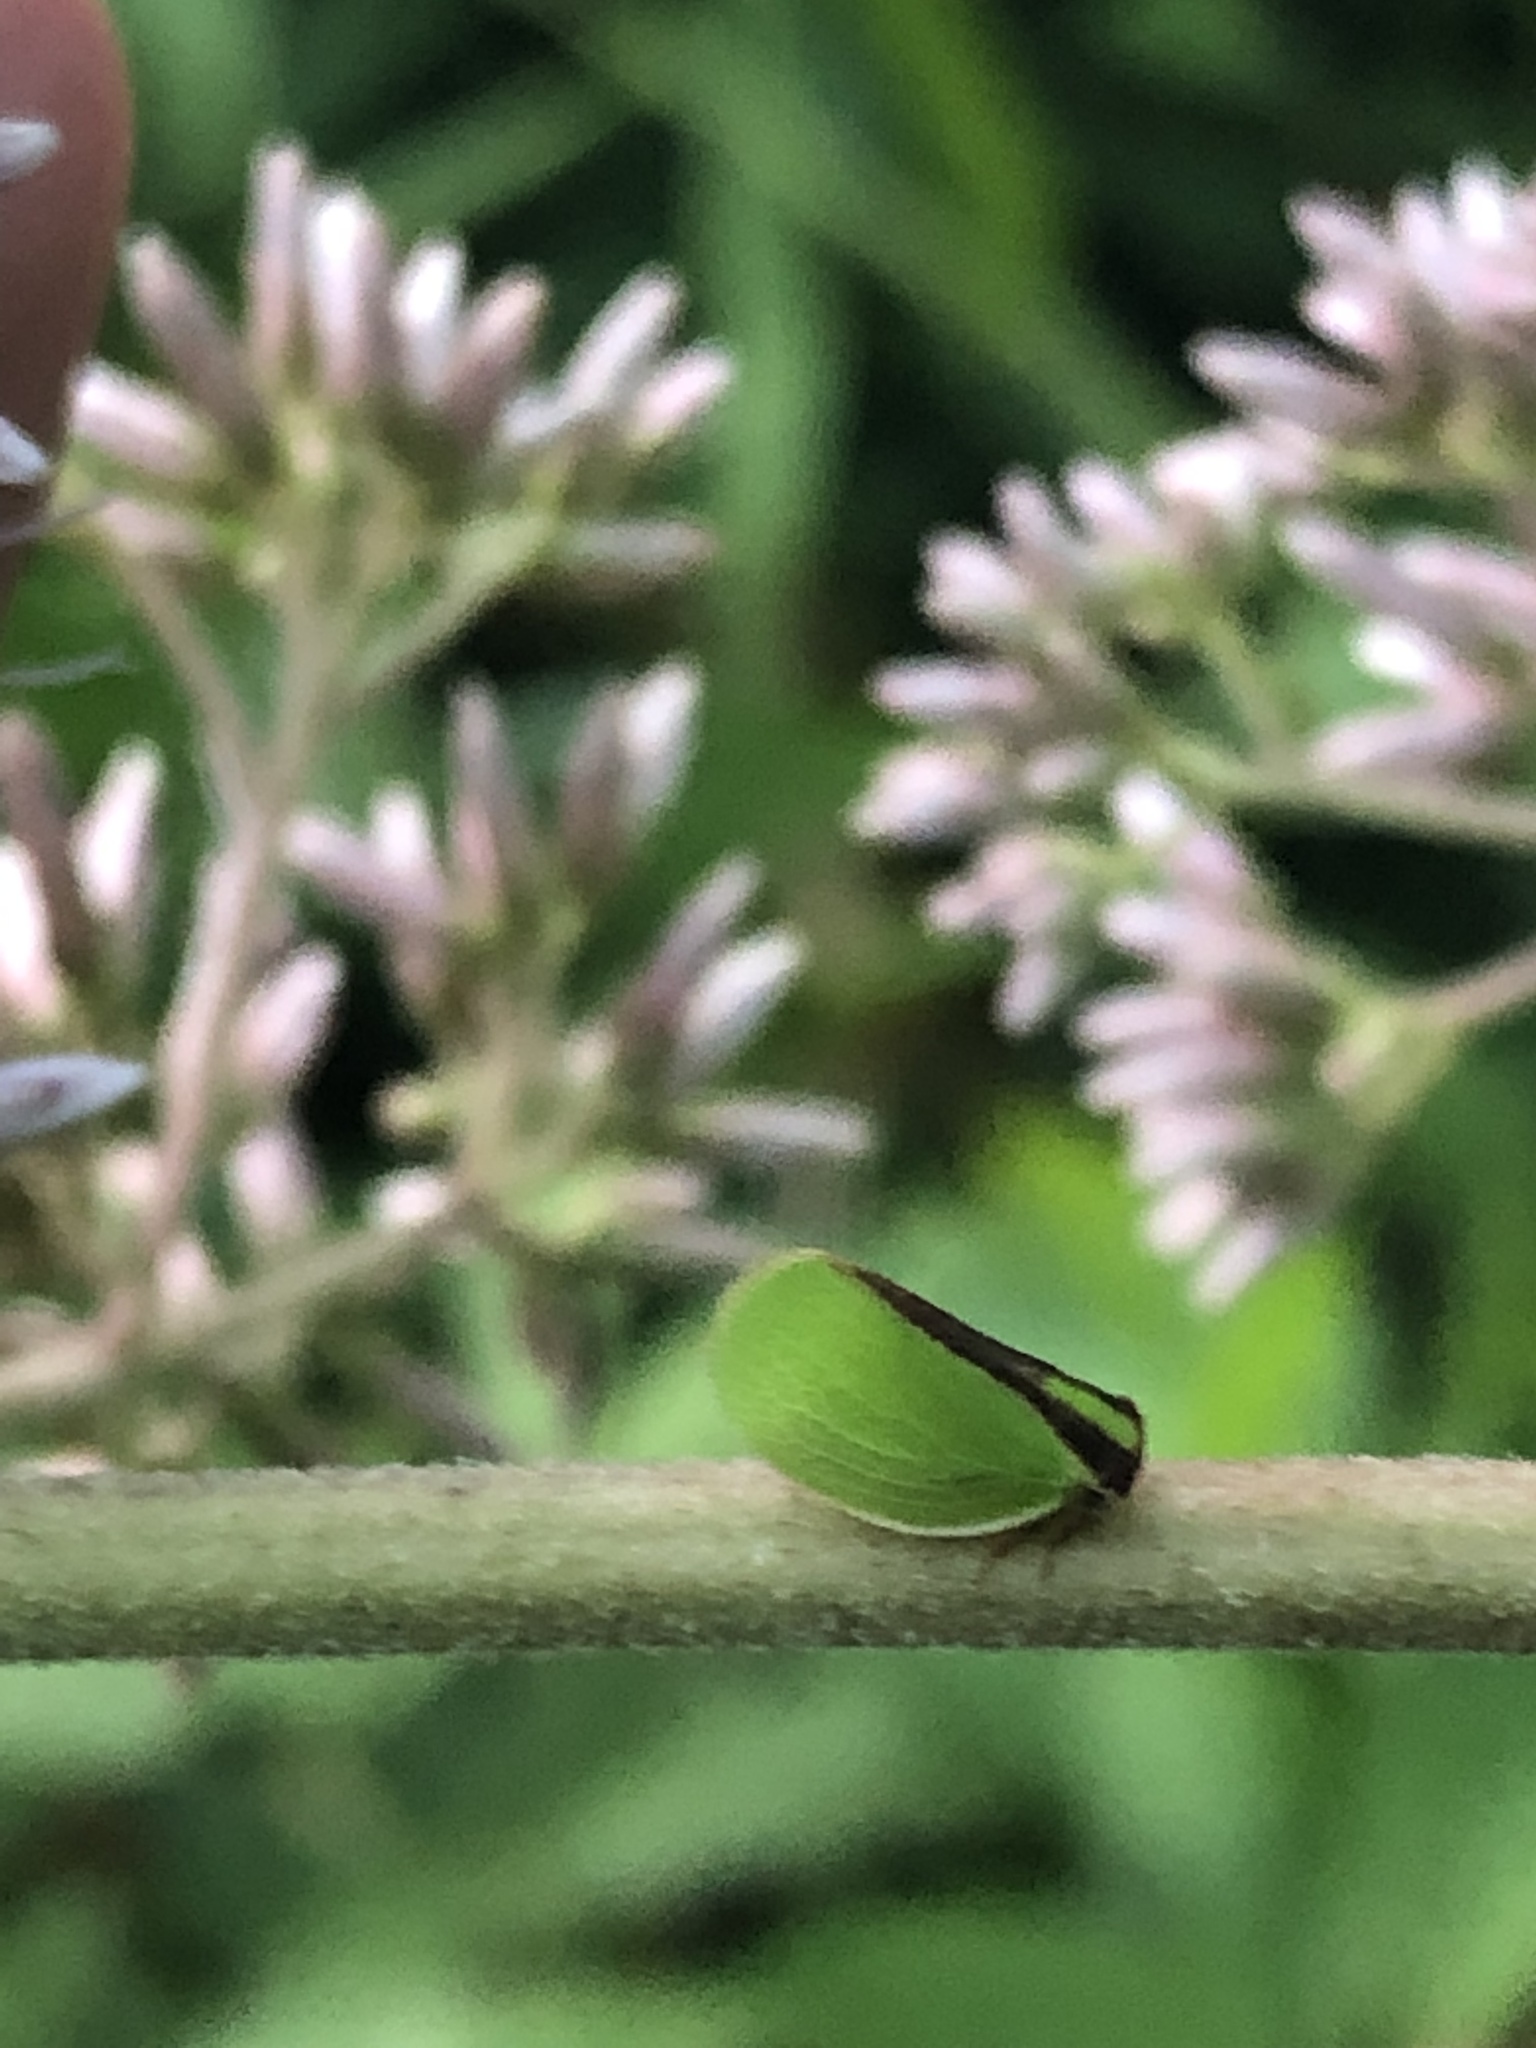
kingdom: Animalia
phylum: Arthropoda
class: Insecta
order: Hemiptera
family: Acanaloniidae
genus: Acanalonia
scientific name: Acanalonia bivittata
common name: Two-striped planthopper
